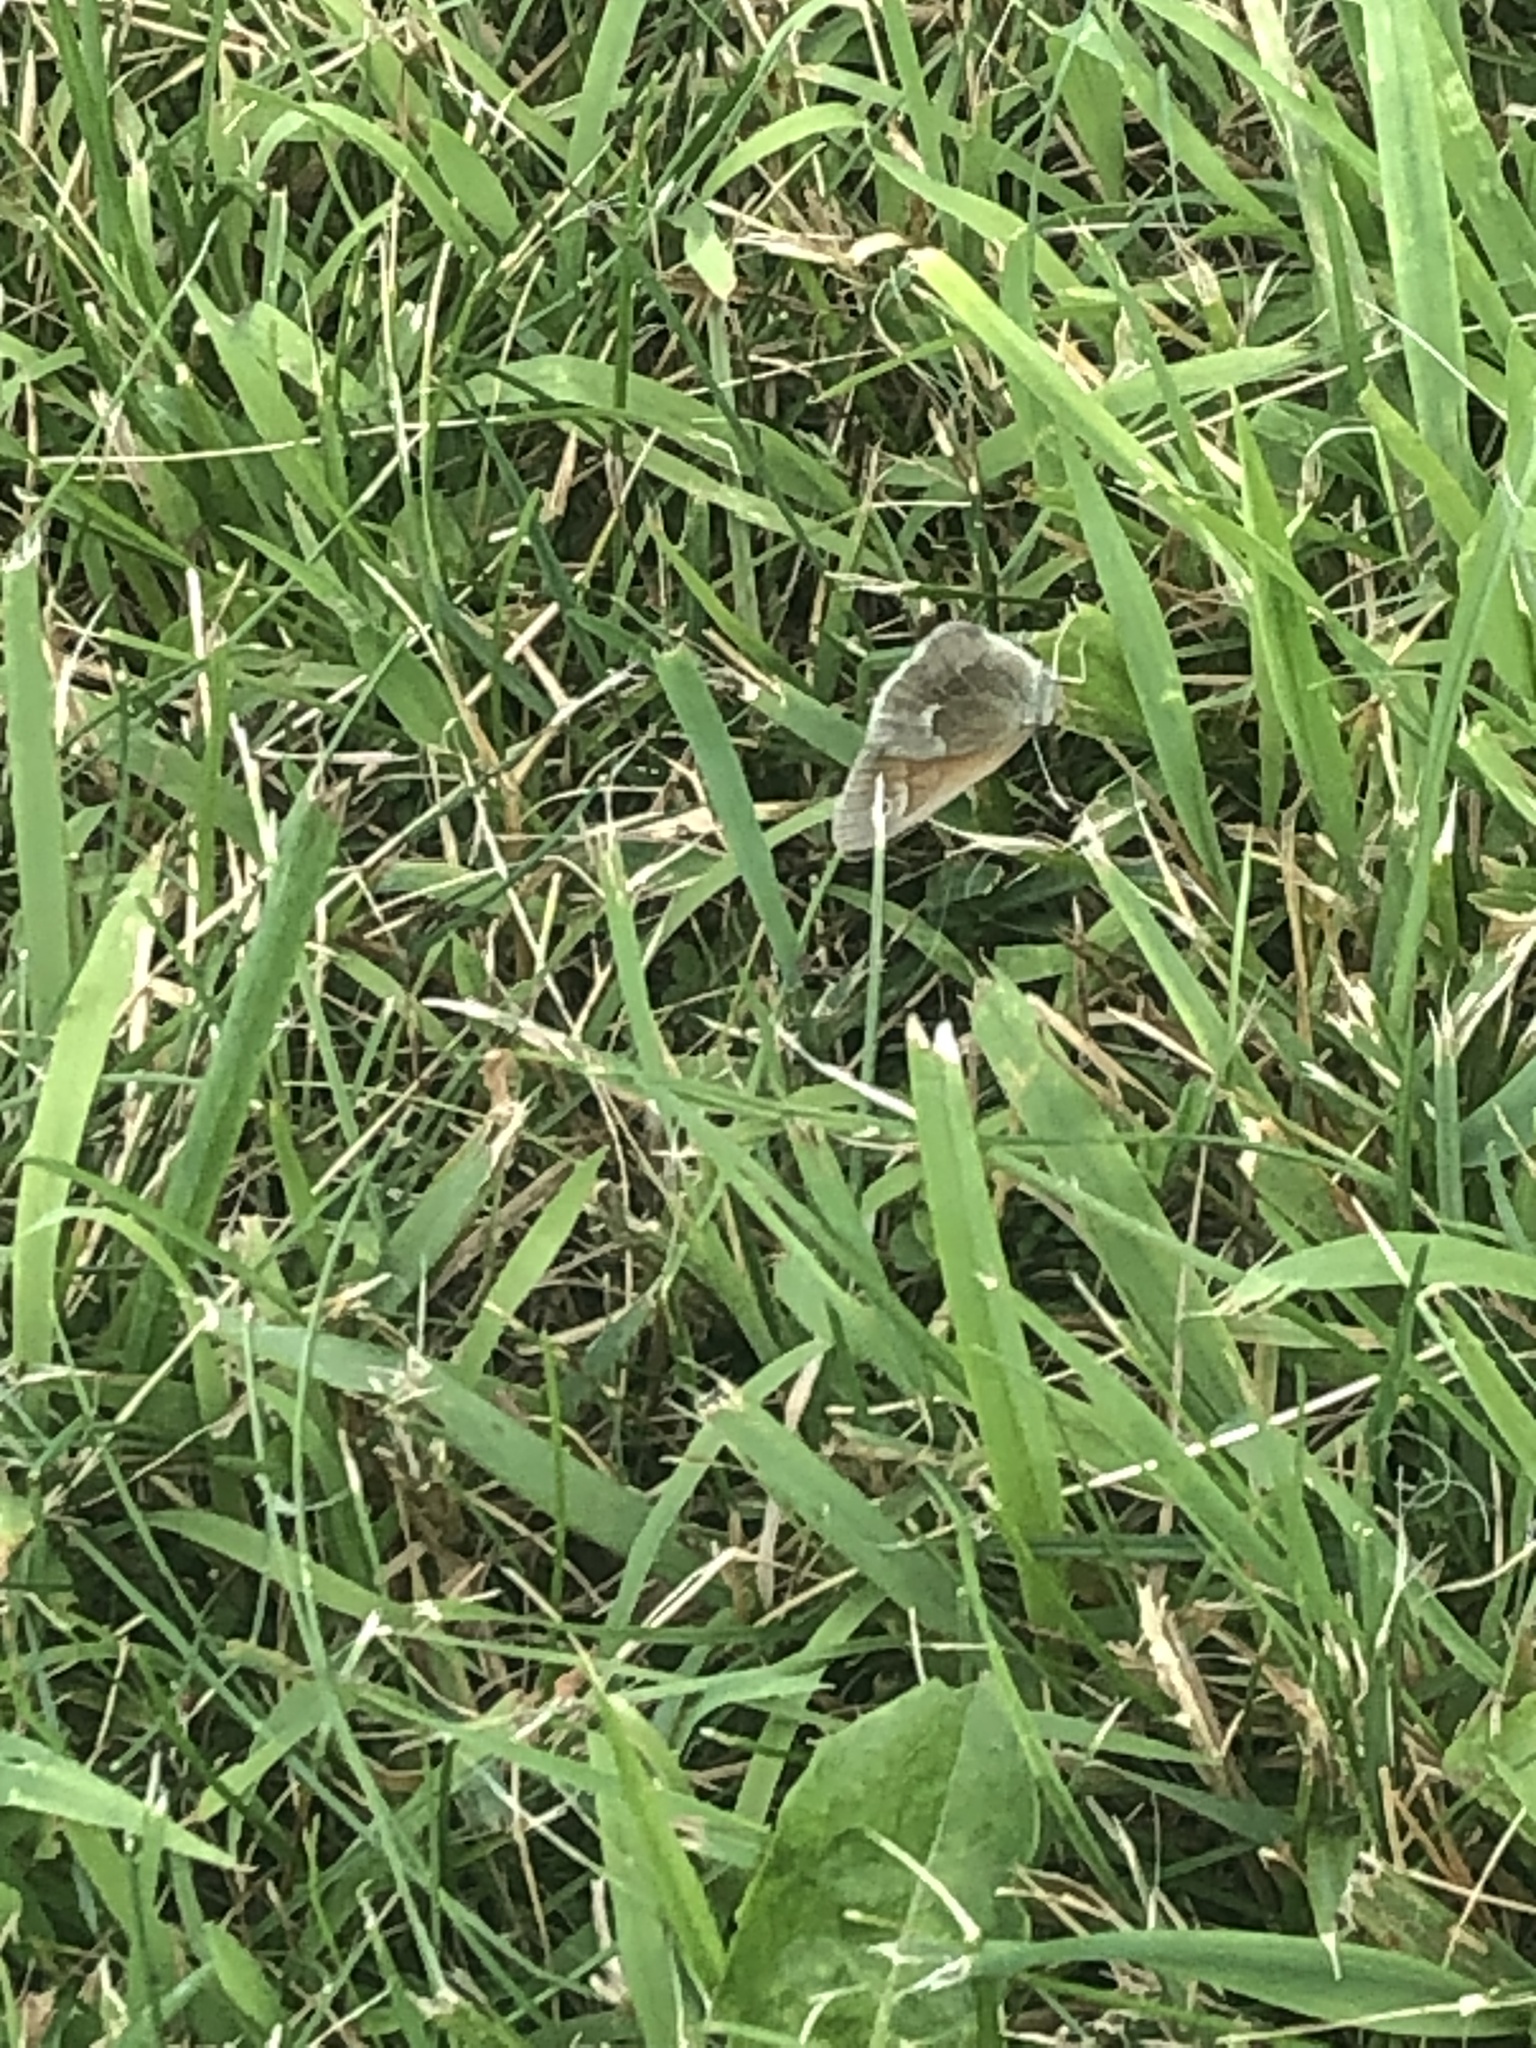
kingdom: Animalia
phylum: Arthropoda
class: Insecta
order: Lepidoptera
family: Nymphalidae
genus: Coenonympha
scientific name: Coenonympha california
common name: Common ringlet
